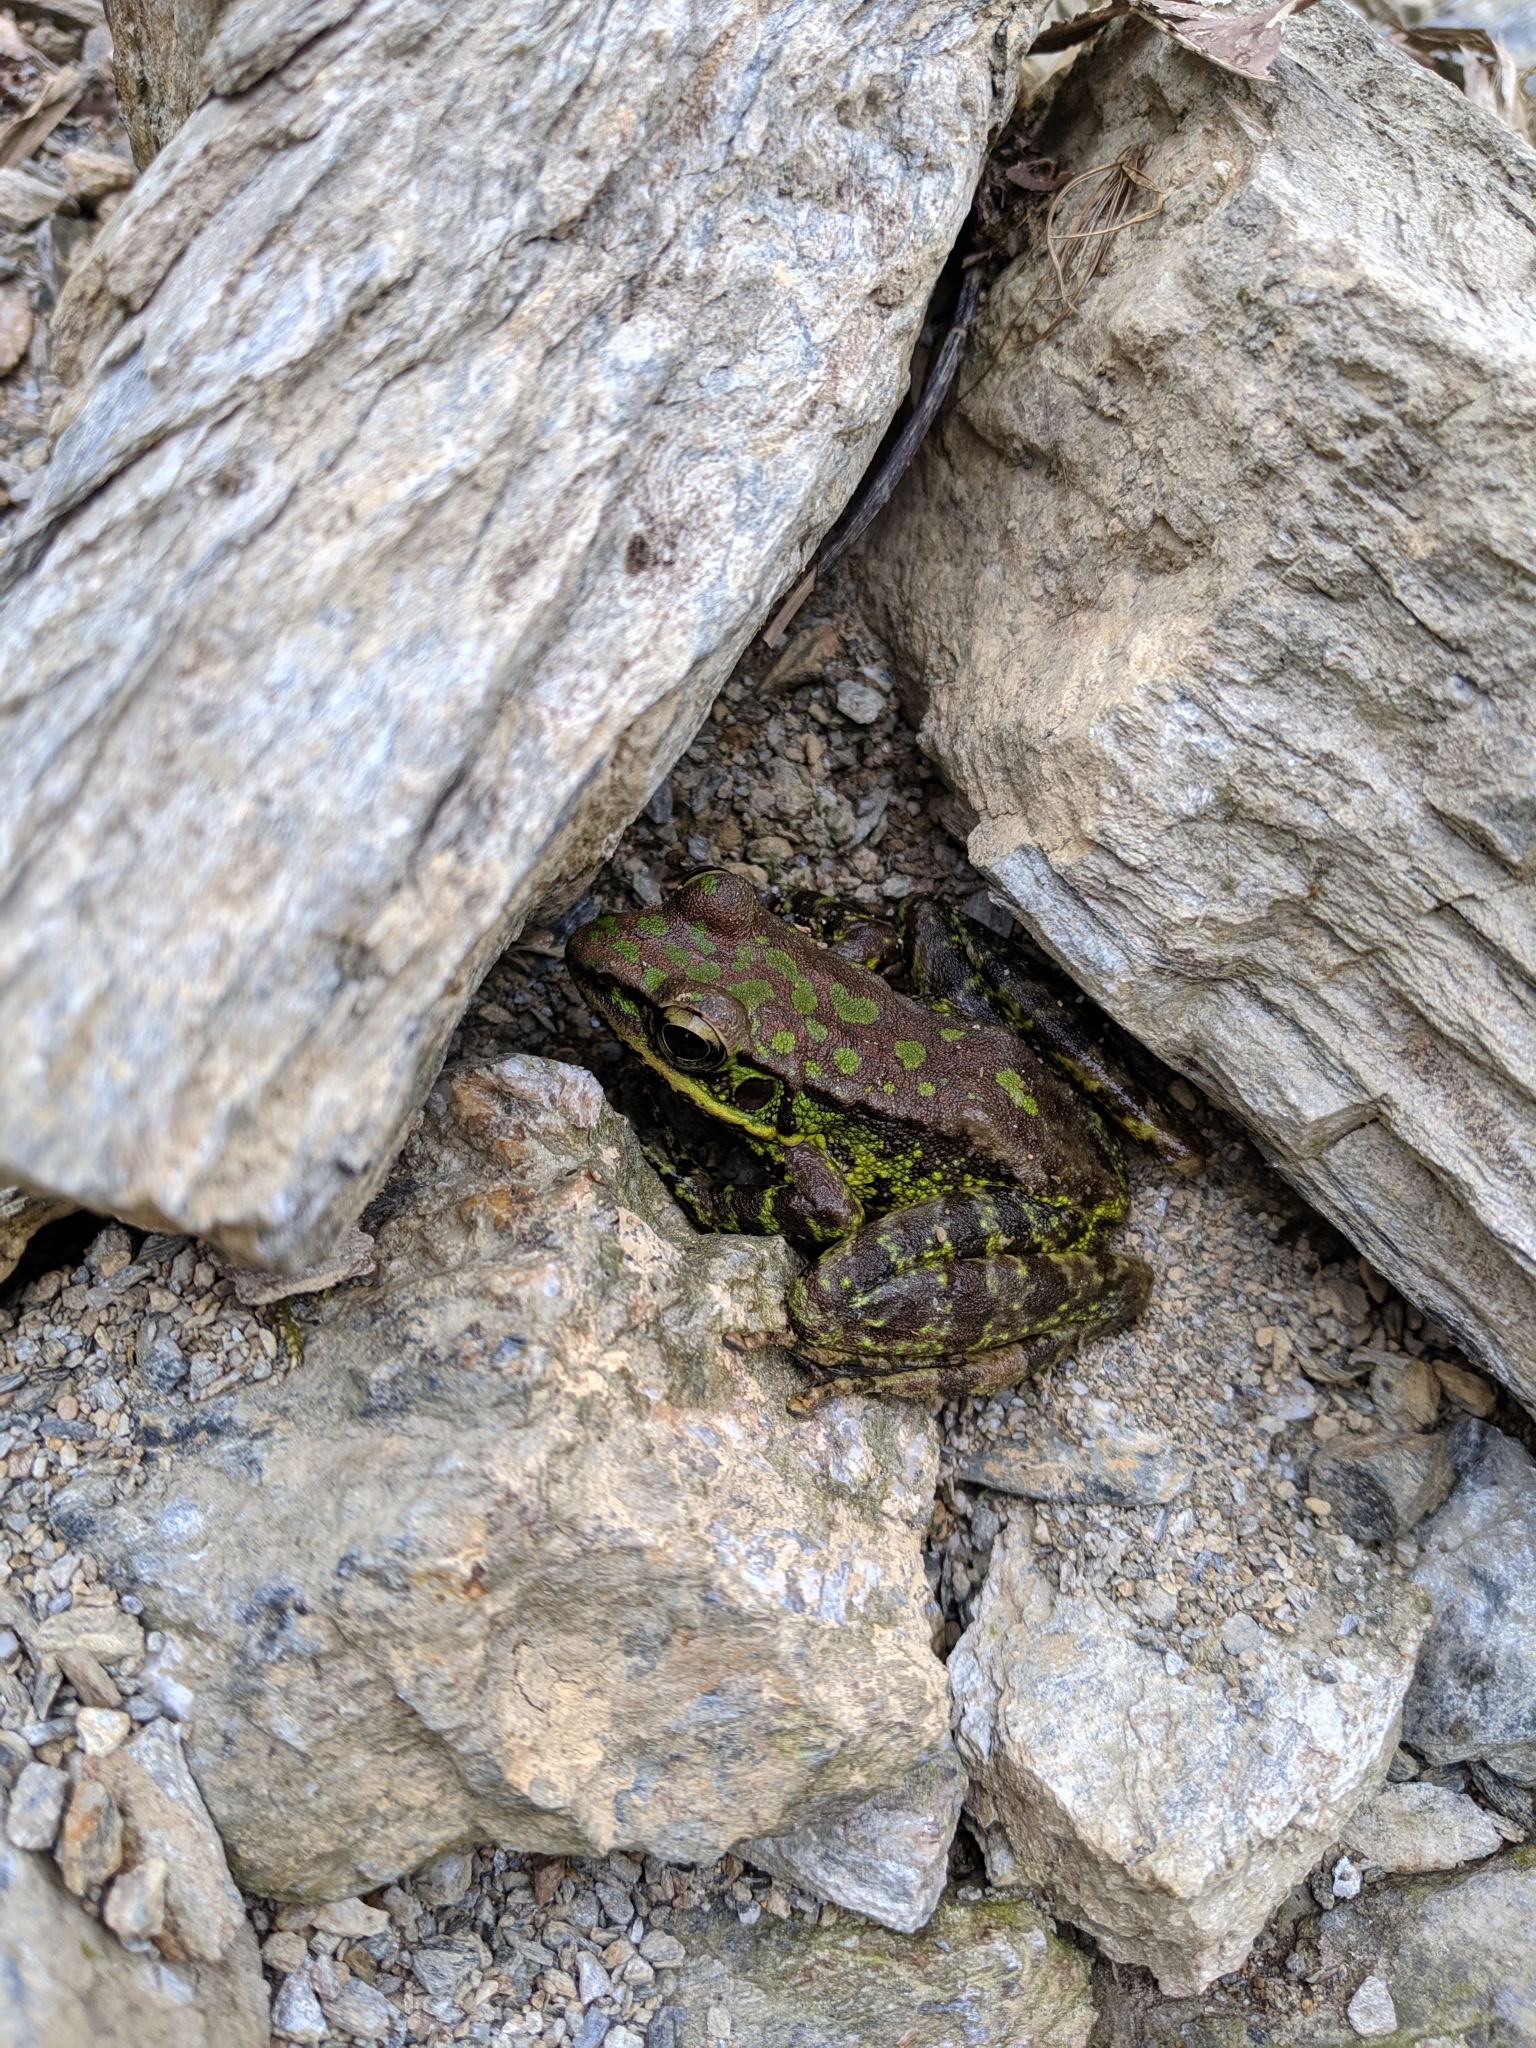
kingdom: Animalia
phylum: Chordata
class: Amphibia
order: Anura
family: Ranidae
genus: Odorrana
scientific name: Odorrana swinhoana
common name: Bangkimtsing frog
